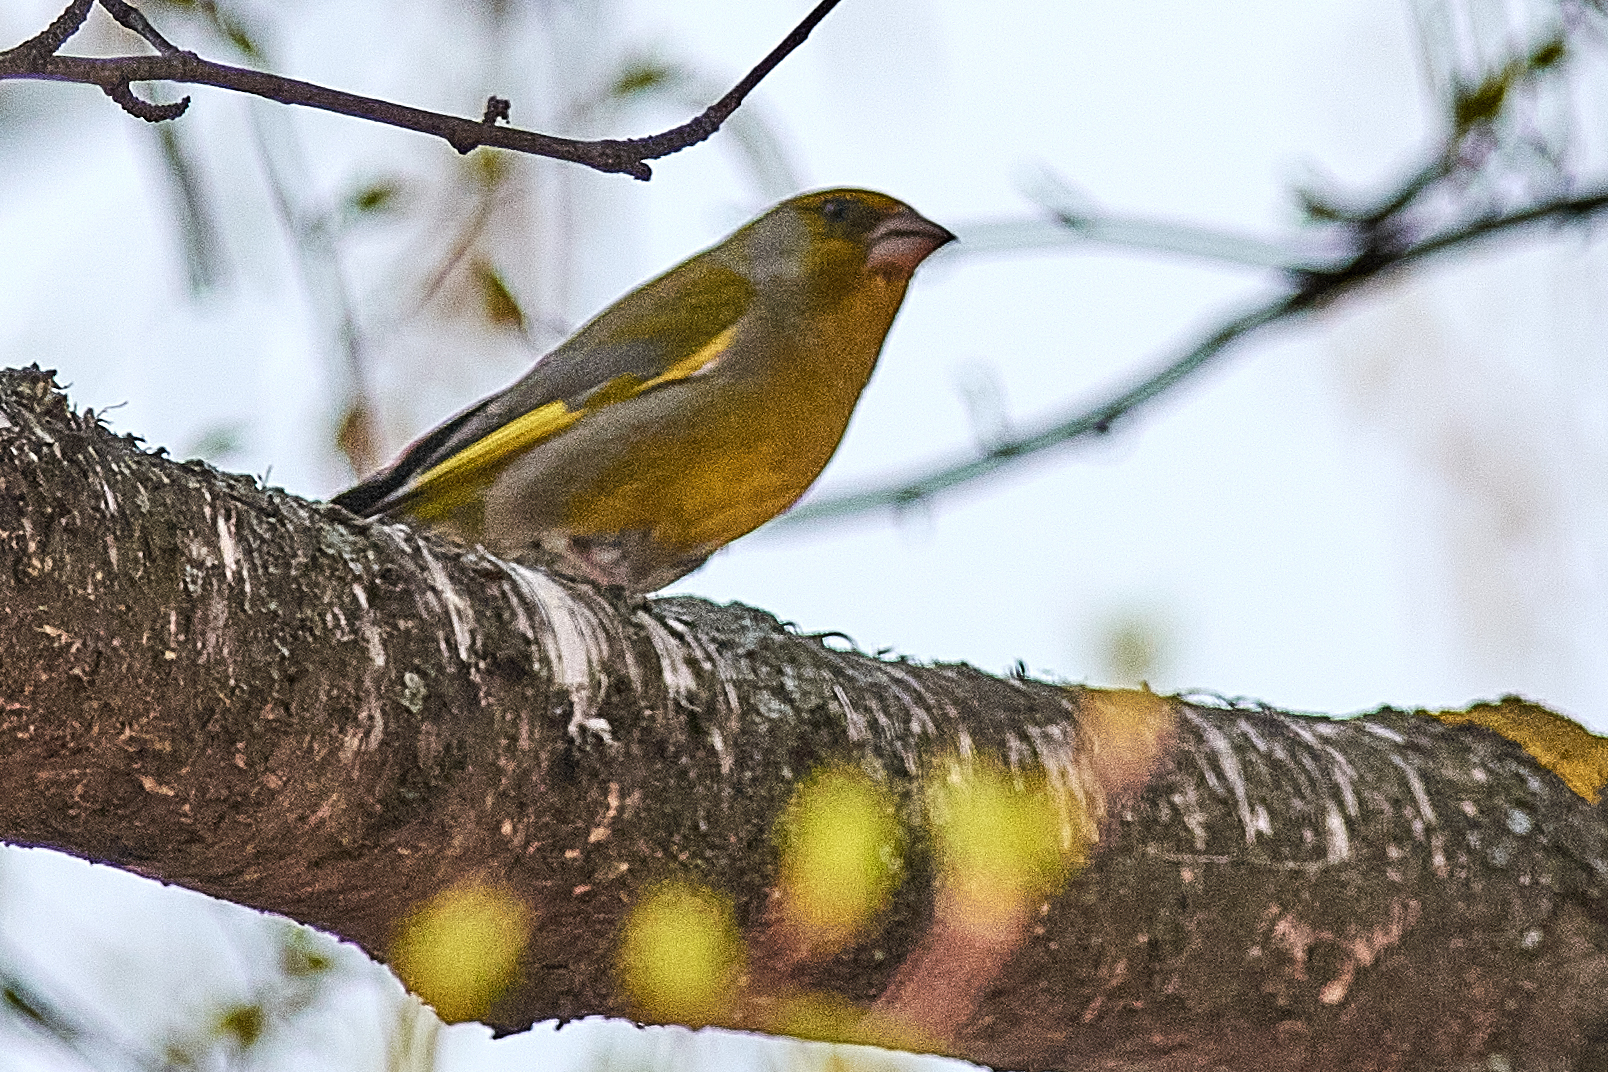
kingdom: Plantae
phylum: Tracheophyta
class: Liliopsida
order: Poales
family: Poaceae
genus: Chloris
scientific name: Chloris chloris
